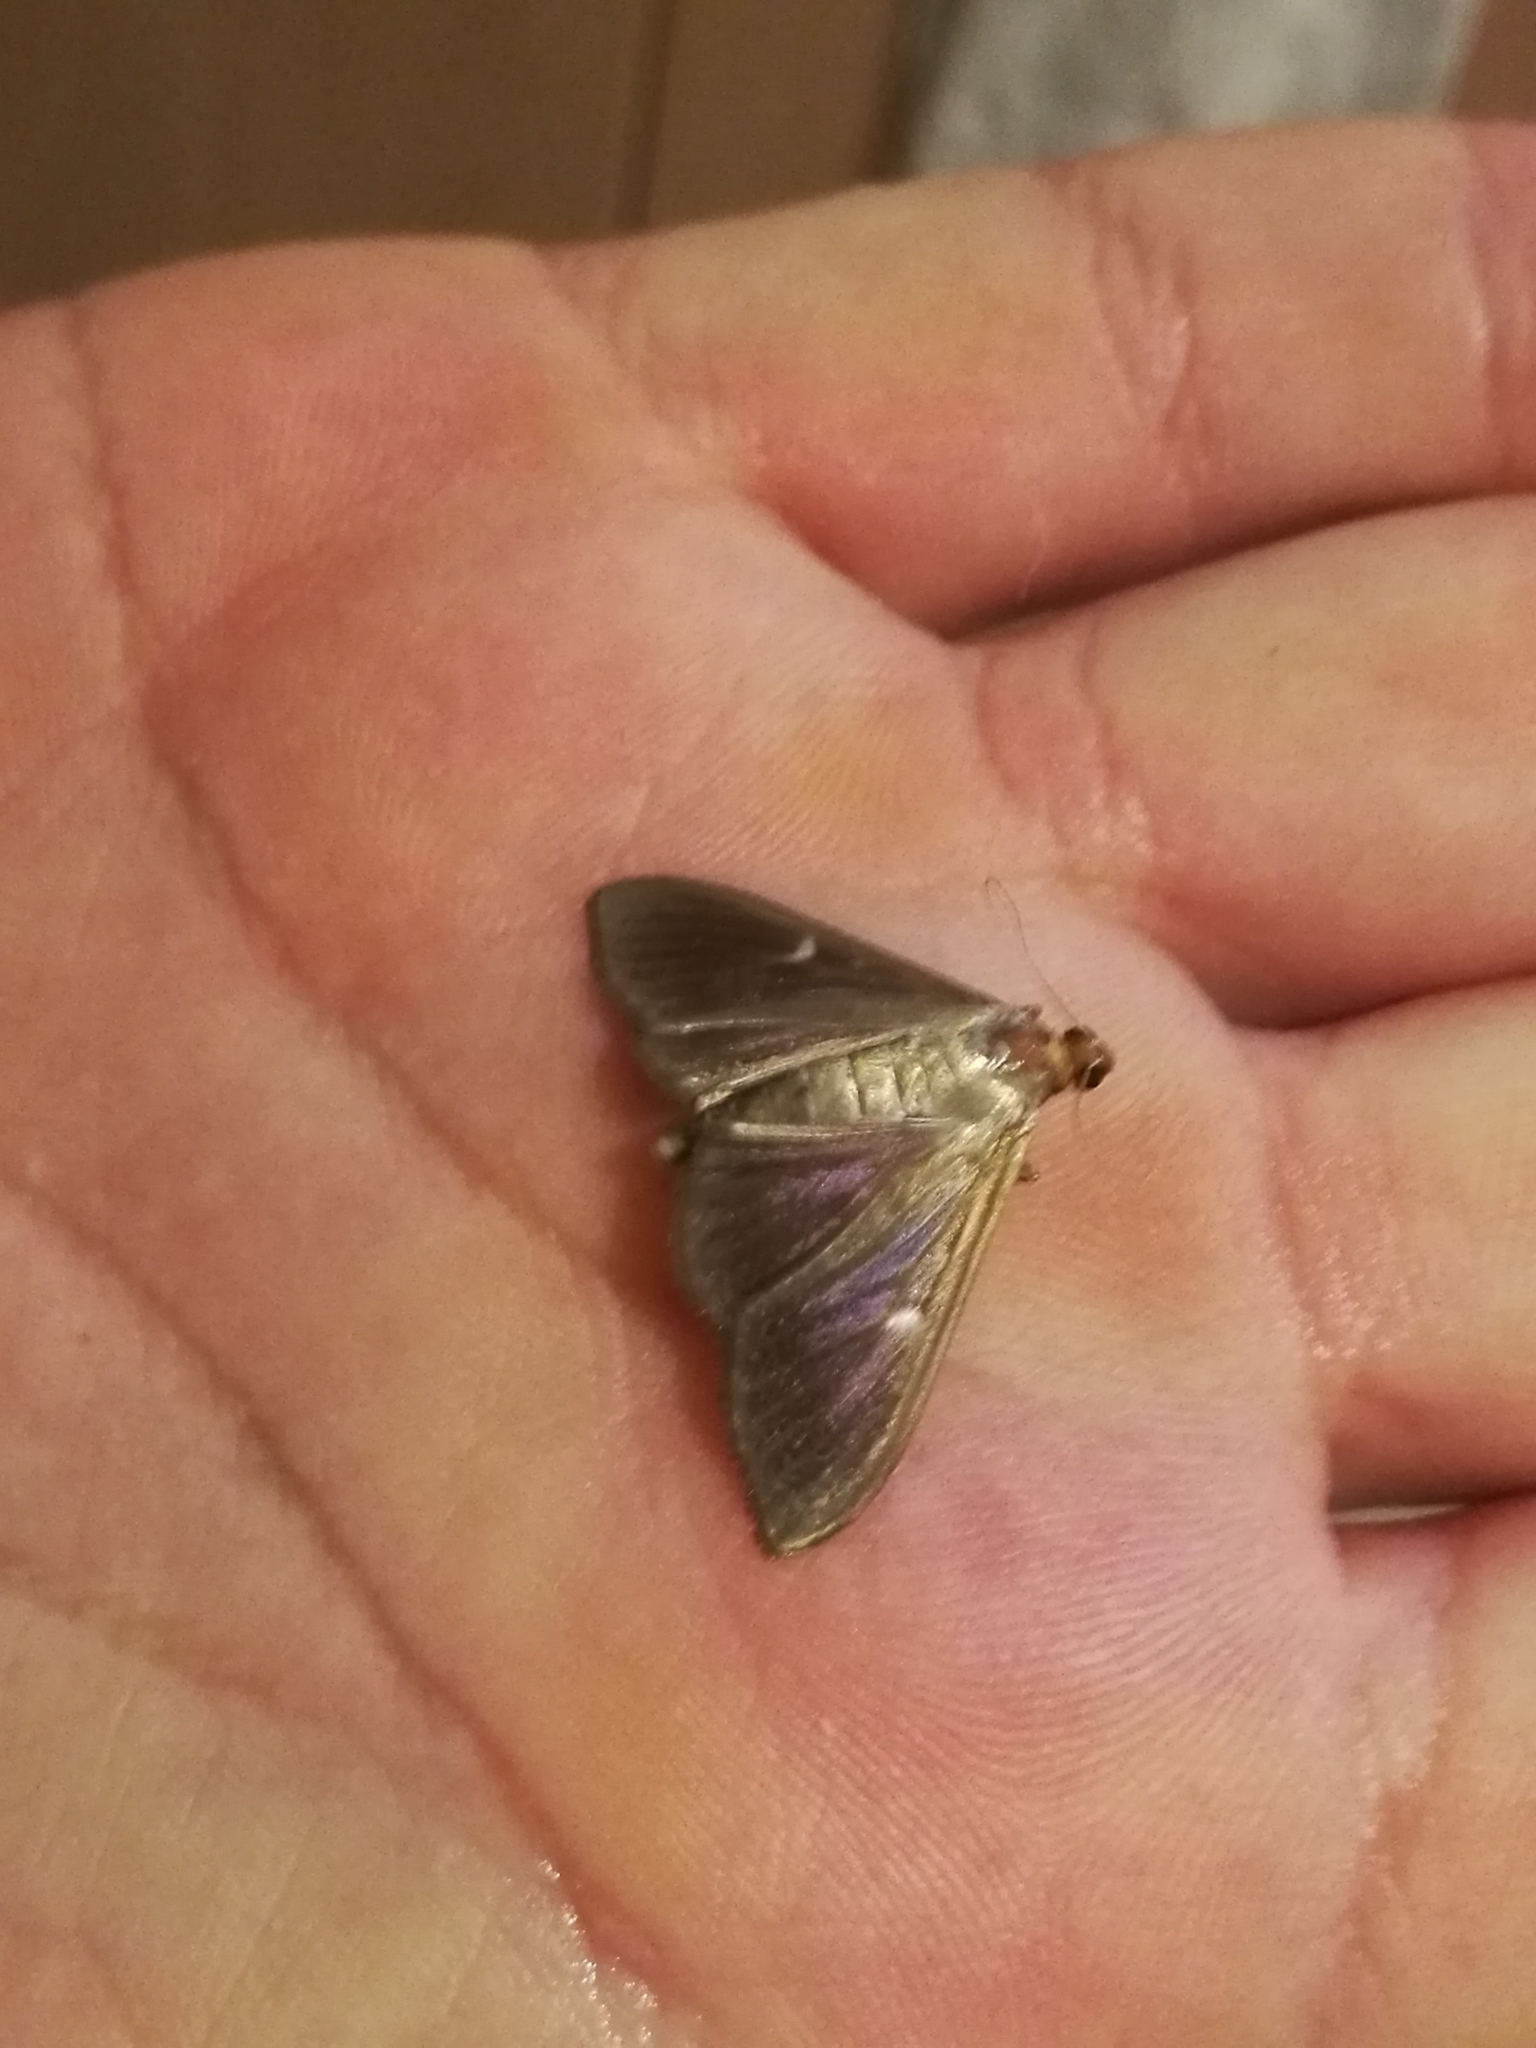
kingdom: Animalia
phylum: Arthropoda
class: Insecta
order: Lepidoptera
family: Crambidae
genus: Cydalima
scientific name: Cydalima perspectalis
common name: Box tree moth
